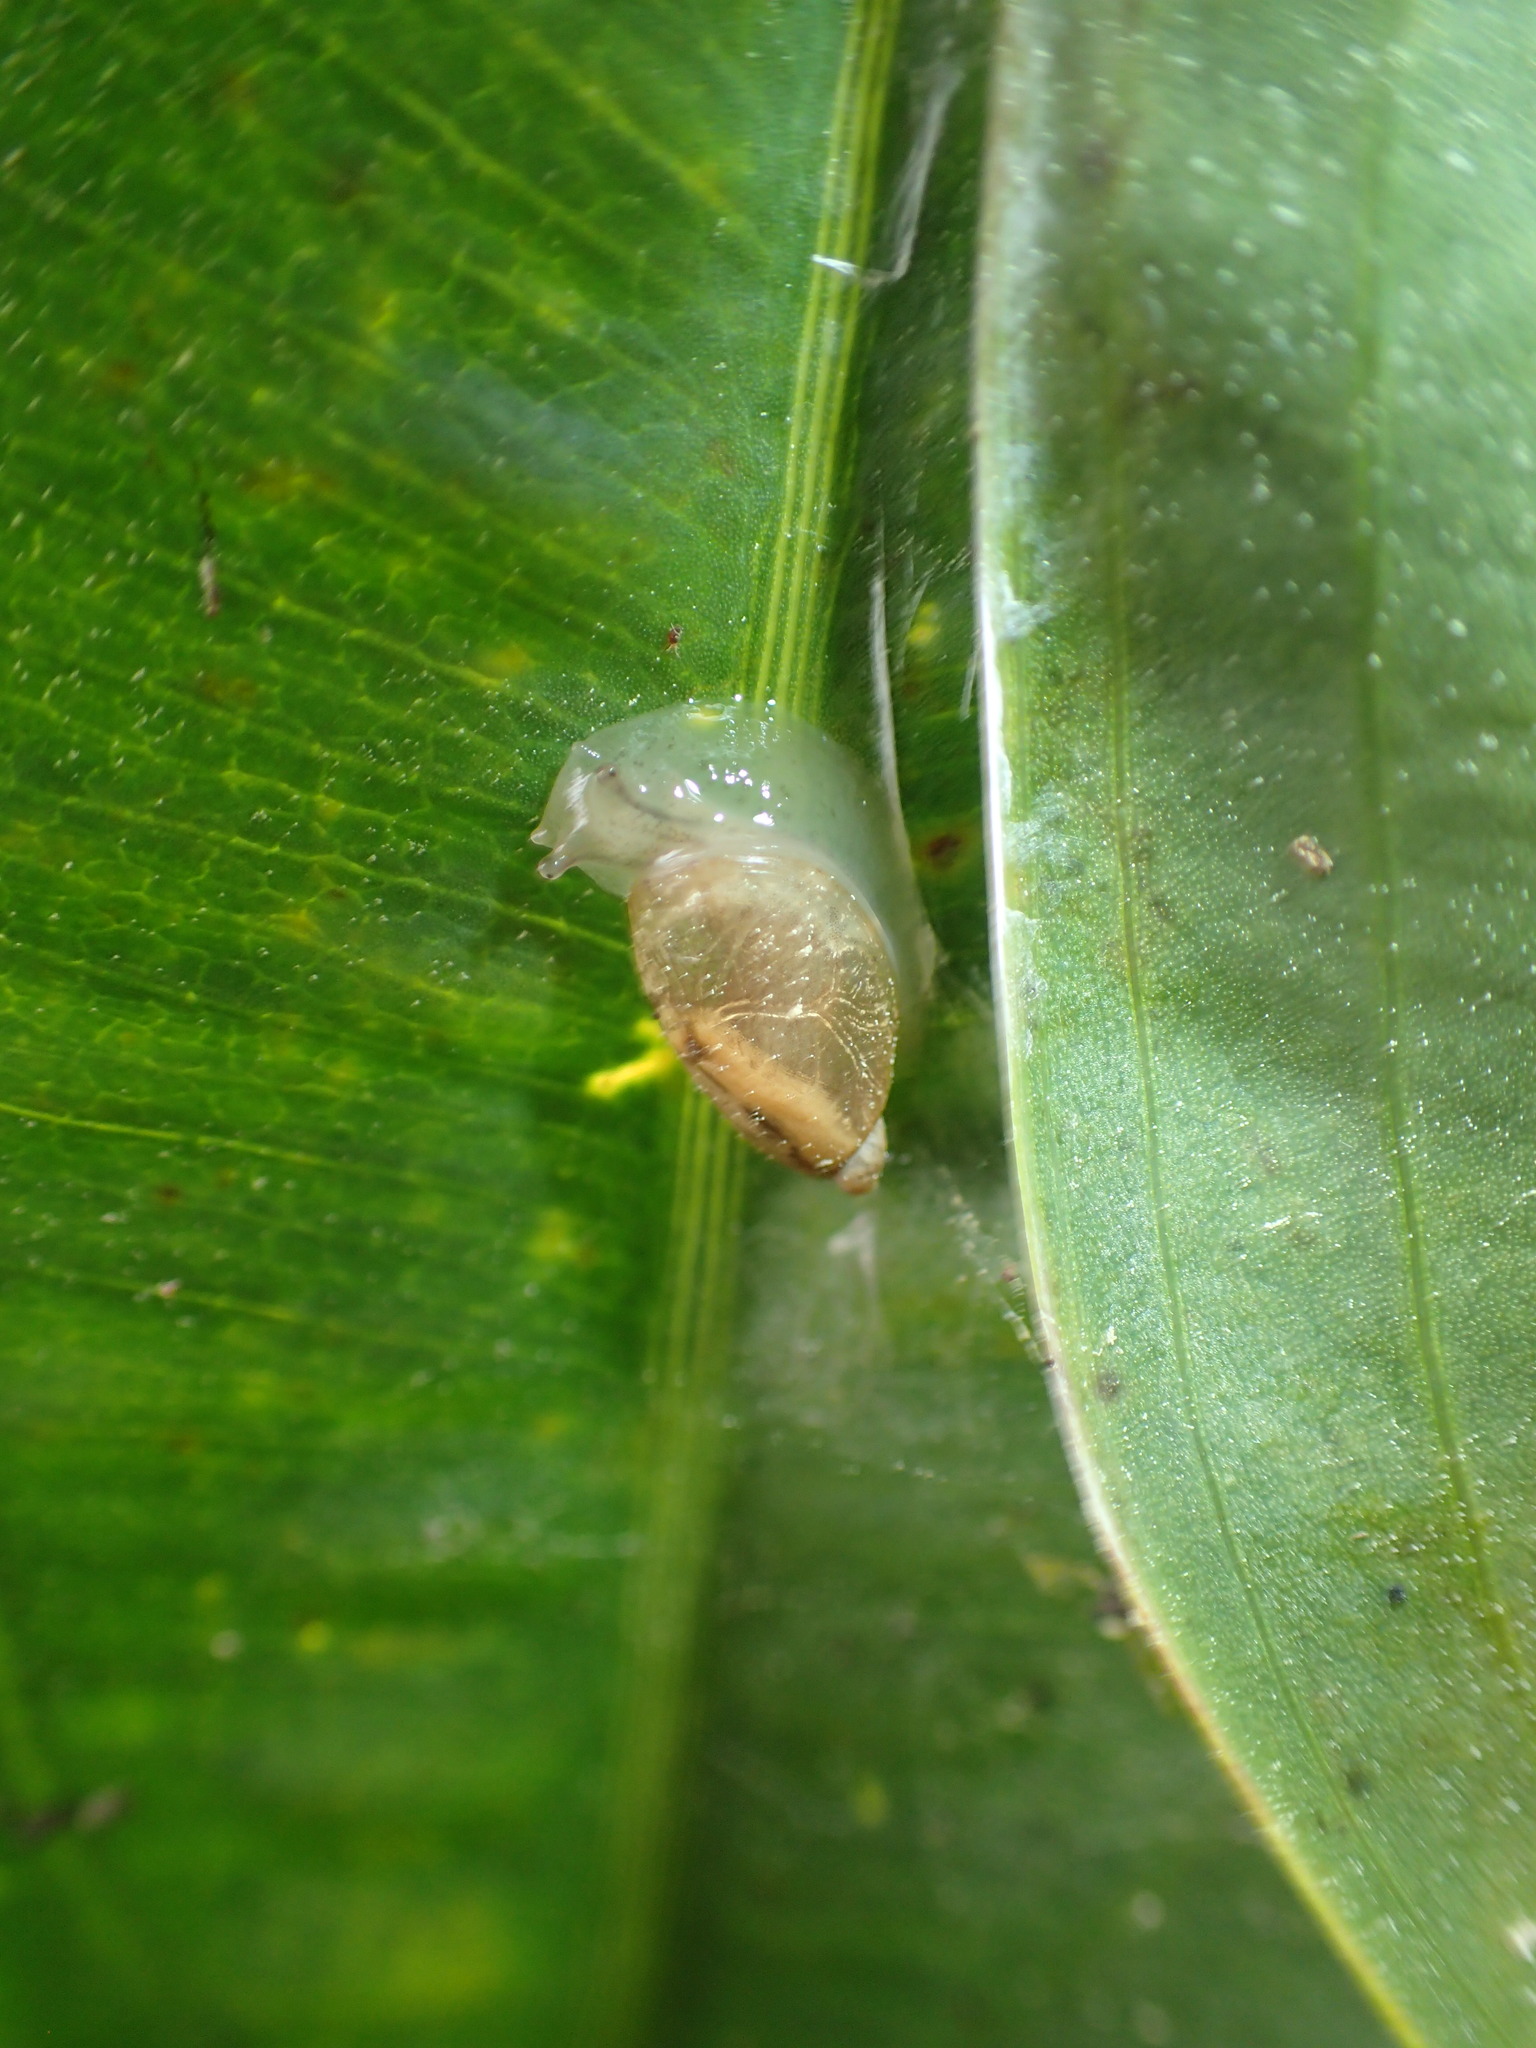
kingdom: Animalia
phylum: Mollusca
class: Gastropoda
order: Stylommatophora
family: Succineidae
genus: Oxyloma
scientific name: Oxyloma effusum
